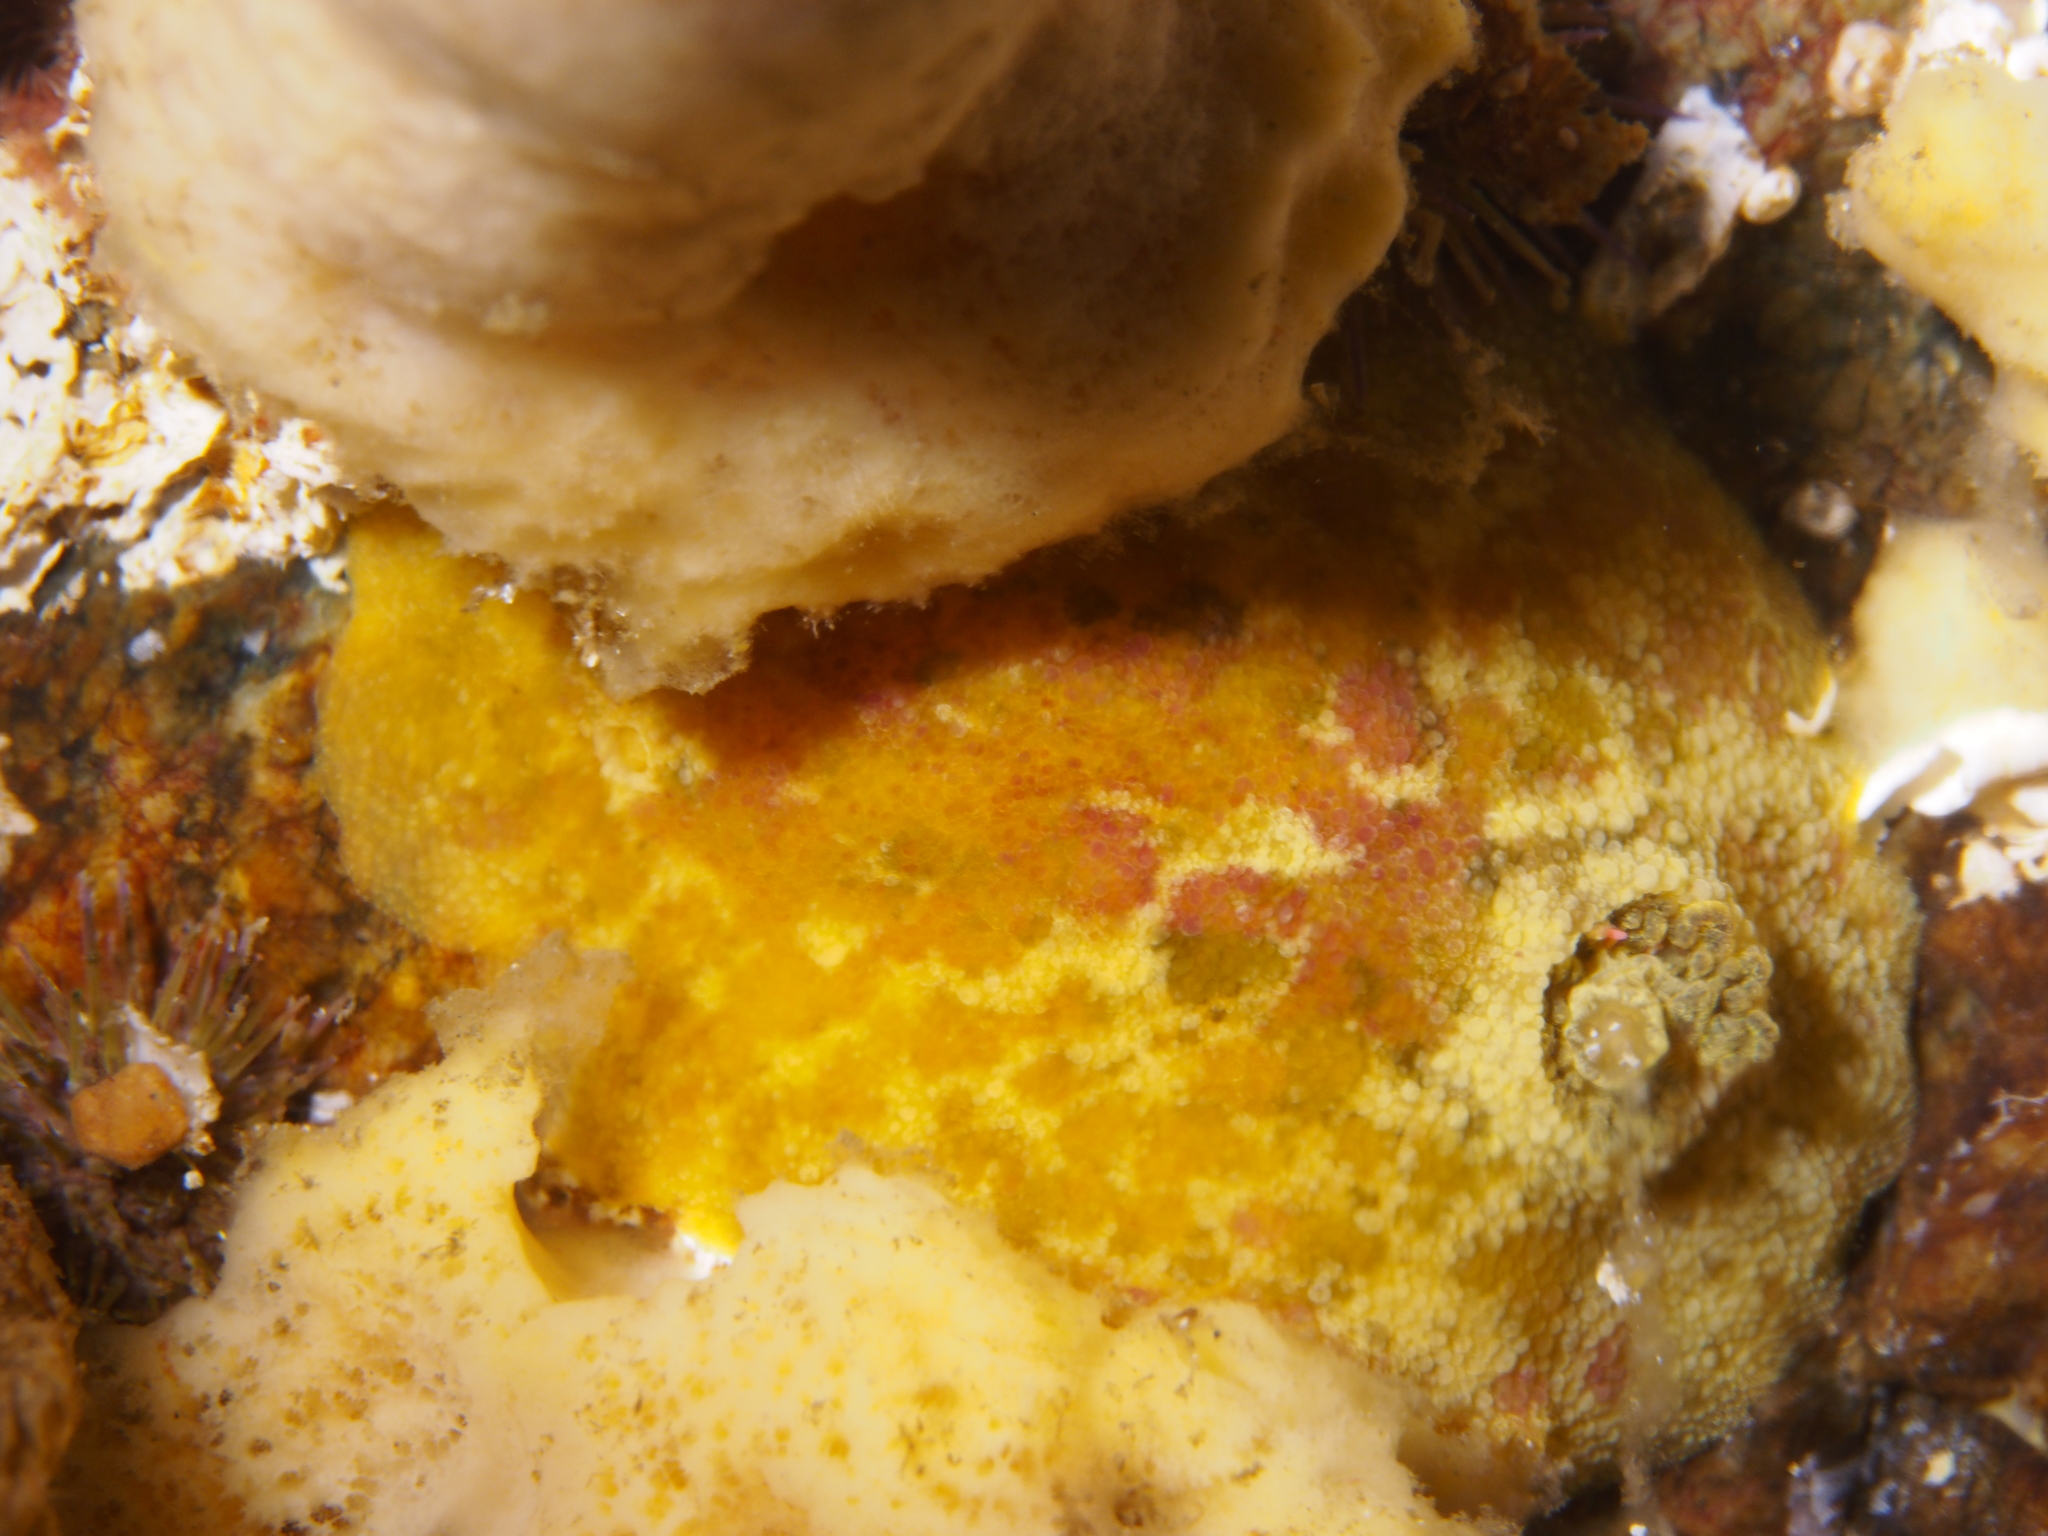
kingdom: Animalia
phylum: Mollusca
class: Gastropoda
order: Nudibranchia
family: Dorididae
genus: Doris
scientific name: Doris pseudoargus
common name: Sea lemon
